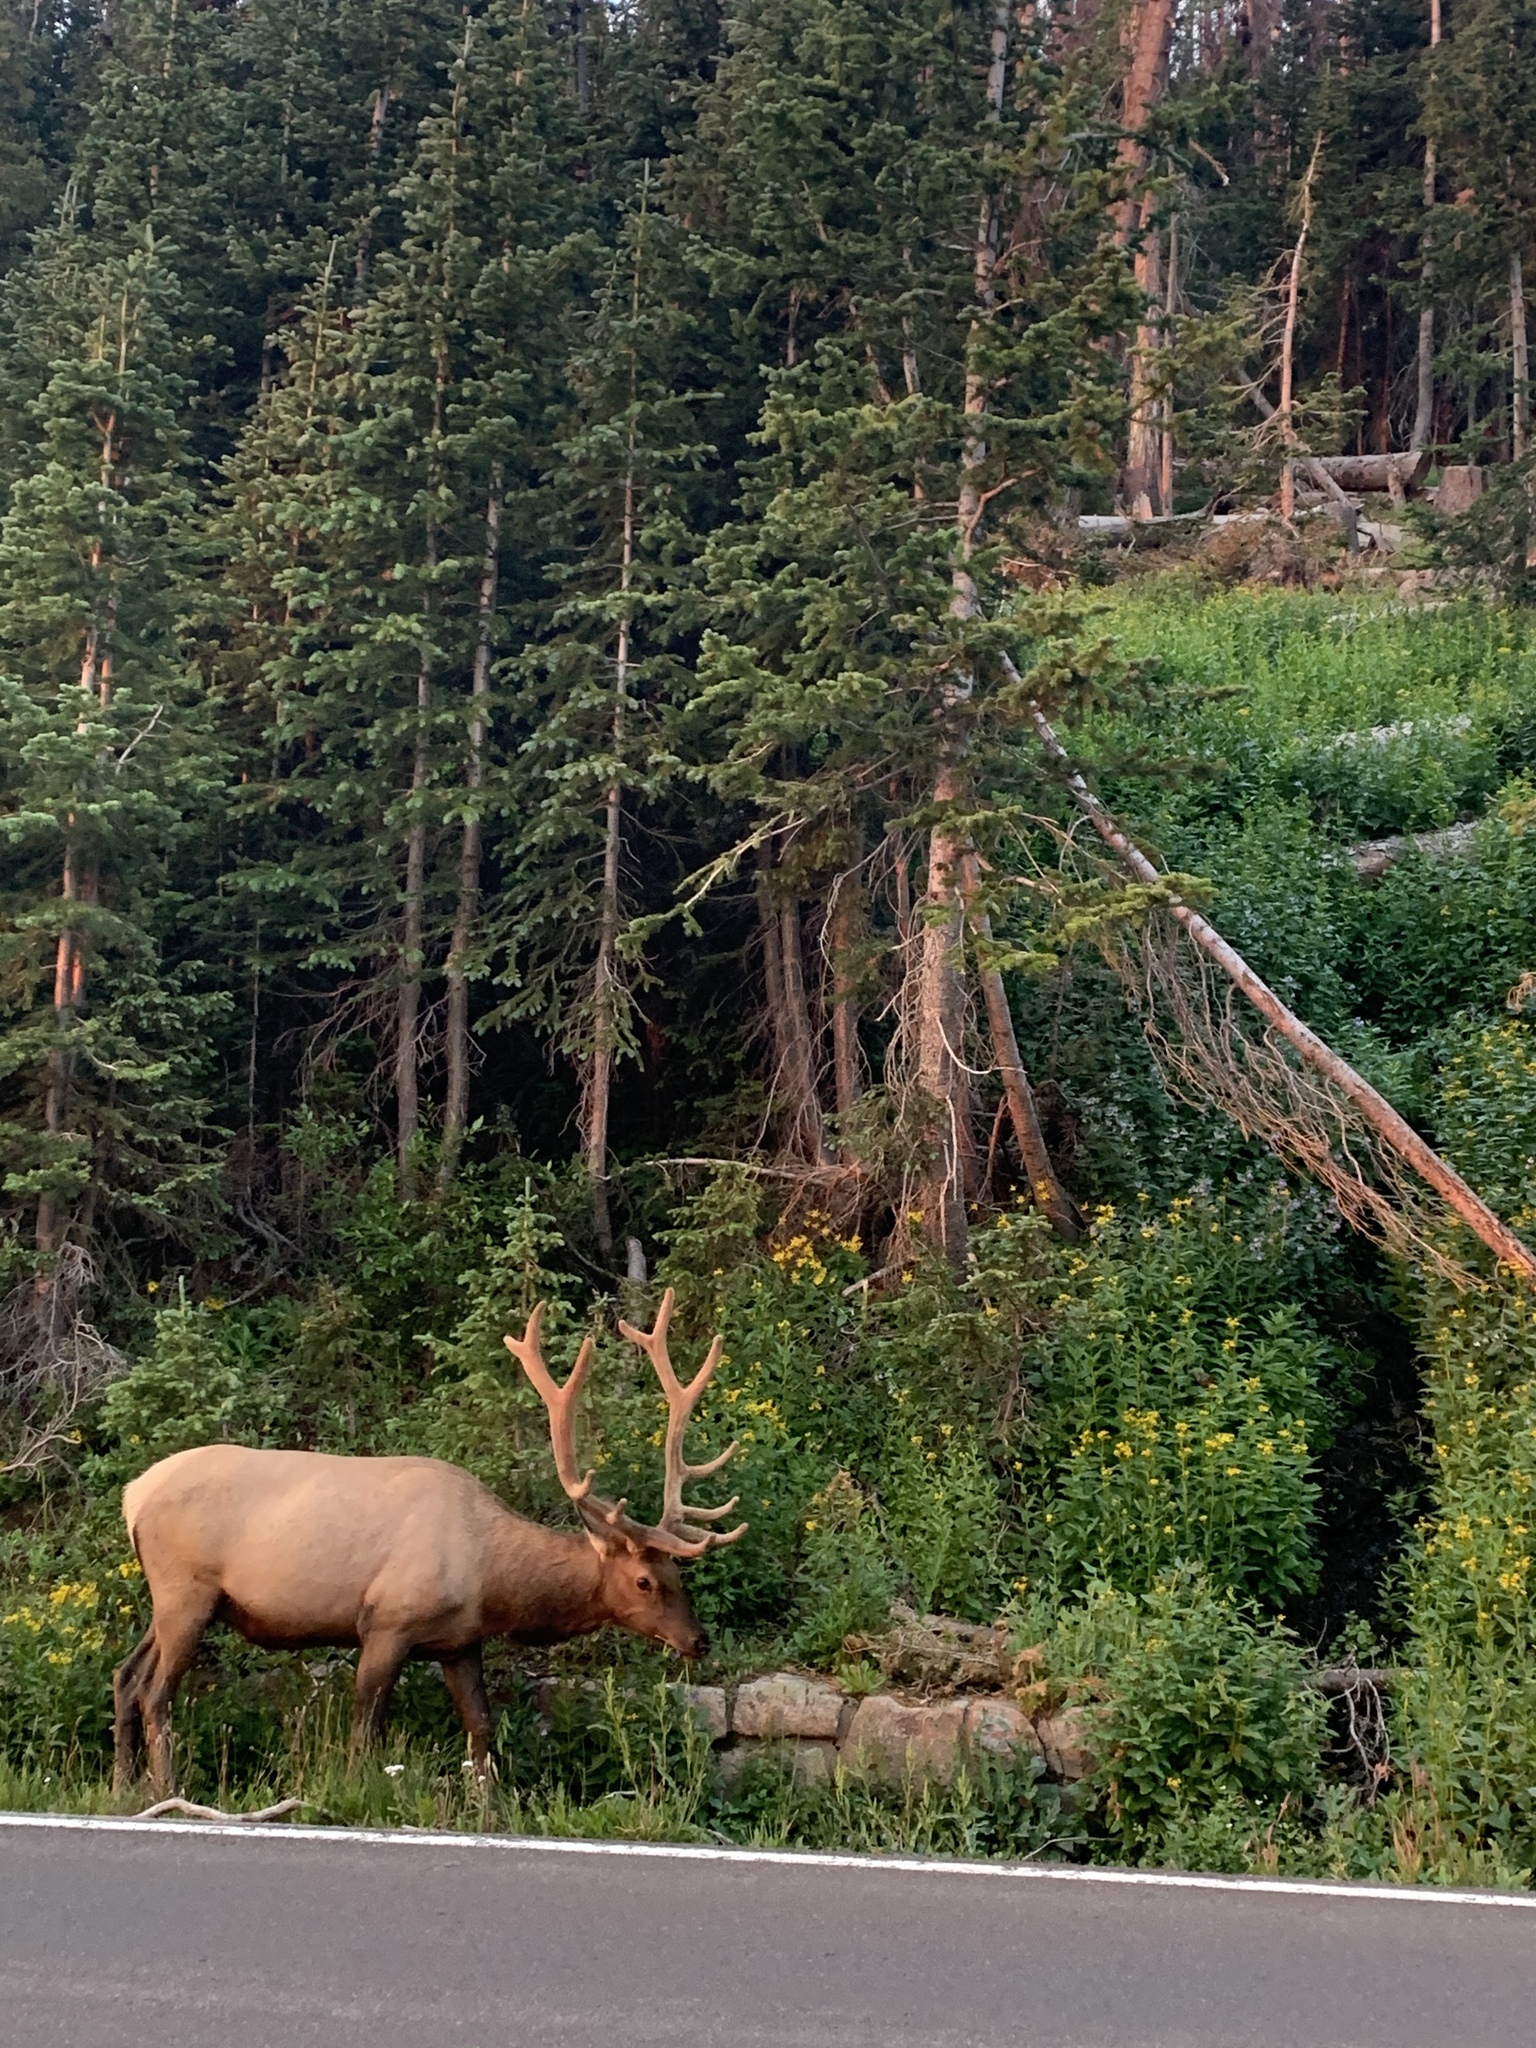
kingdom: Animalia
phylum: Chordata
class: Mammalia
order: Artiodactyla
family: Cervidae
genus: Cervus
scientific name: Cervus elaphus
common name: Red deer
